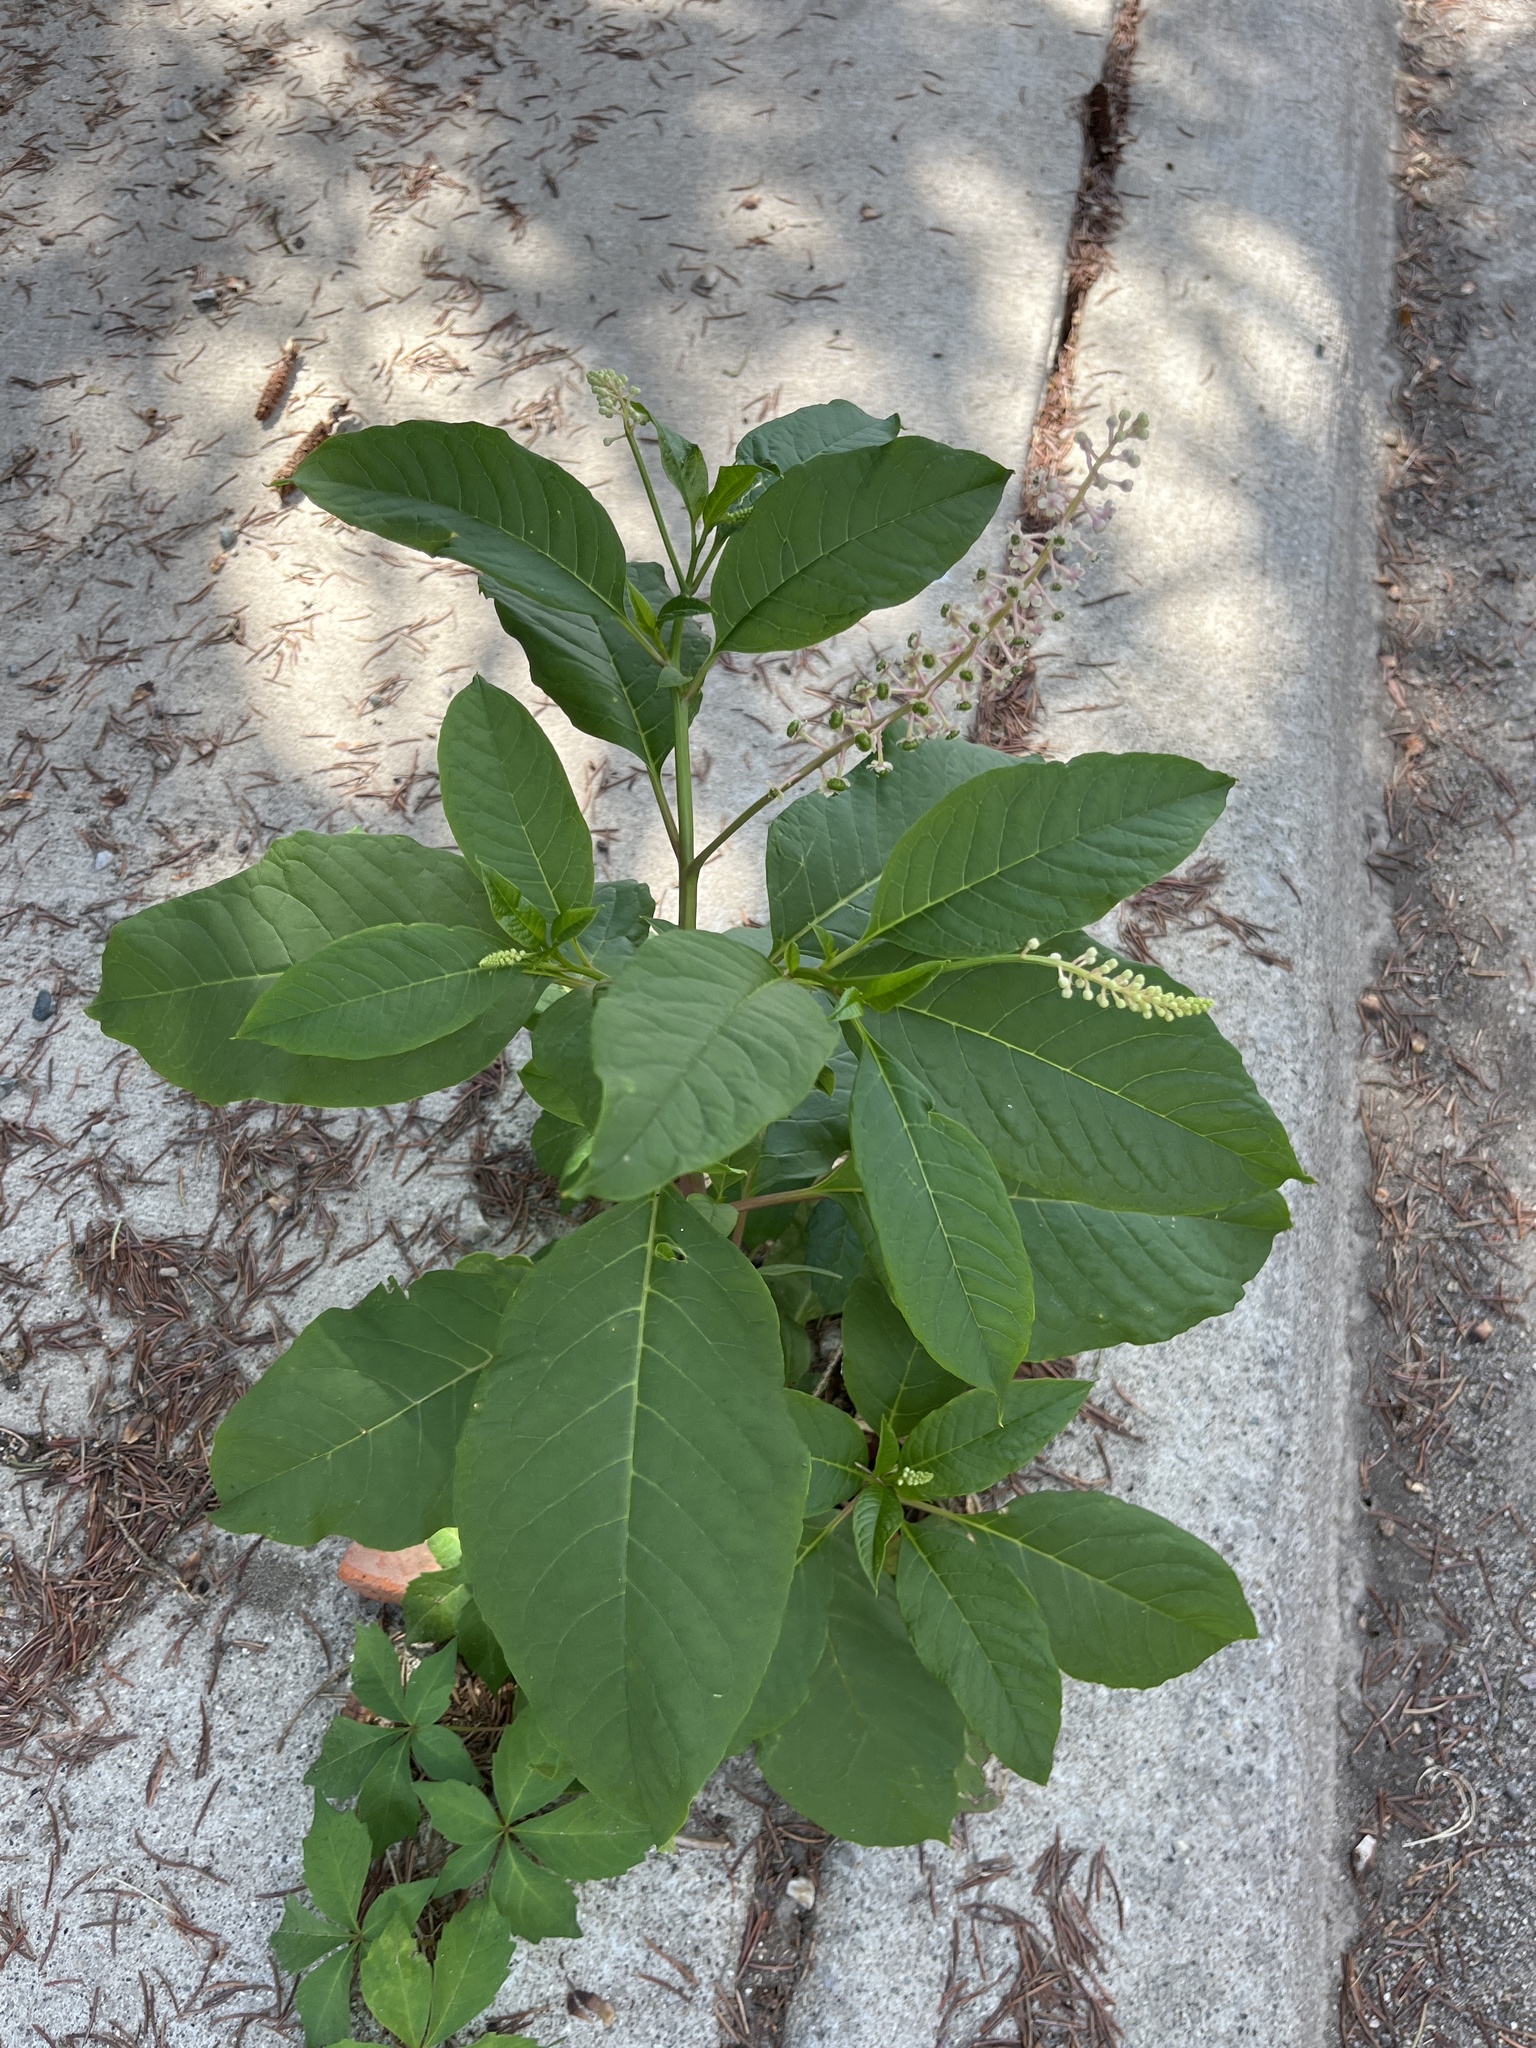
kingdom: Plantae
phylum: Tracheophyta
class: Magnoliopsida
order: Caryophyllales
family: Phytolaccaceae
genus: Phytolacca
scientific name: Phytolacca americana
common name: American pokeweed
